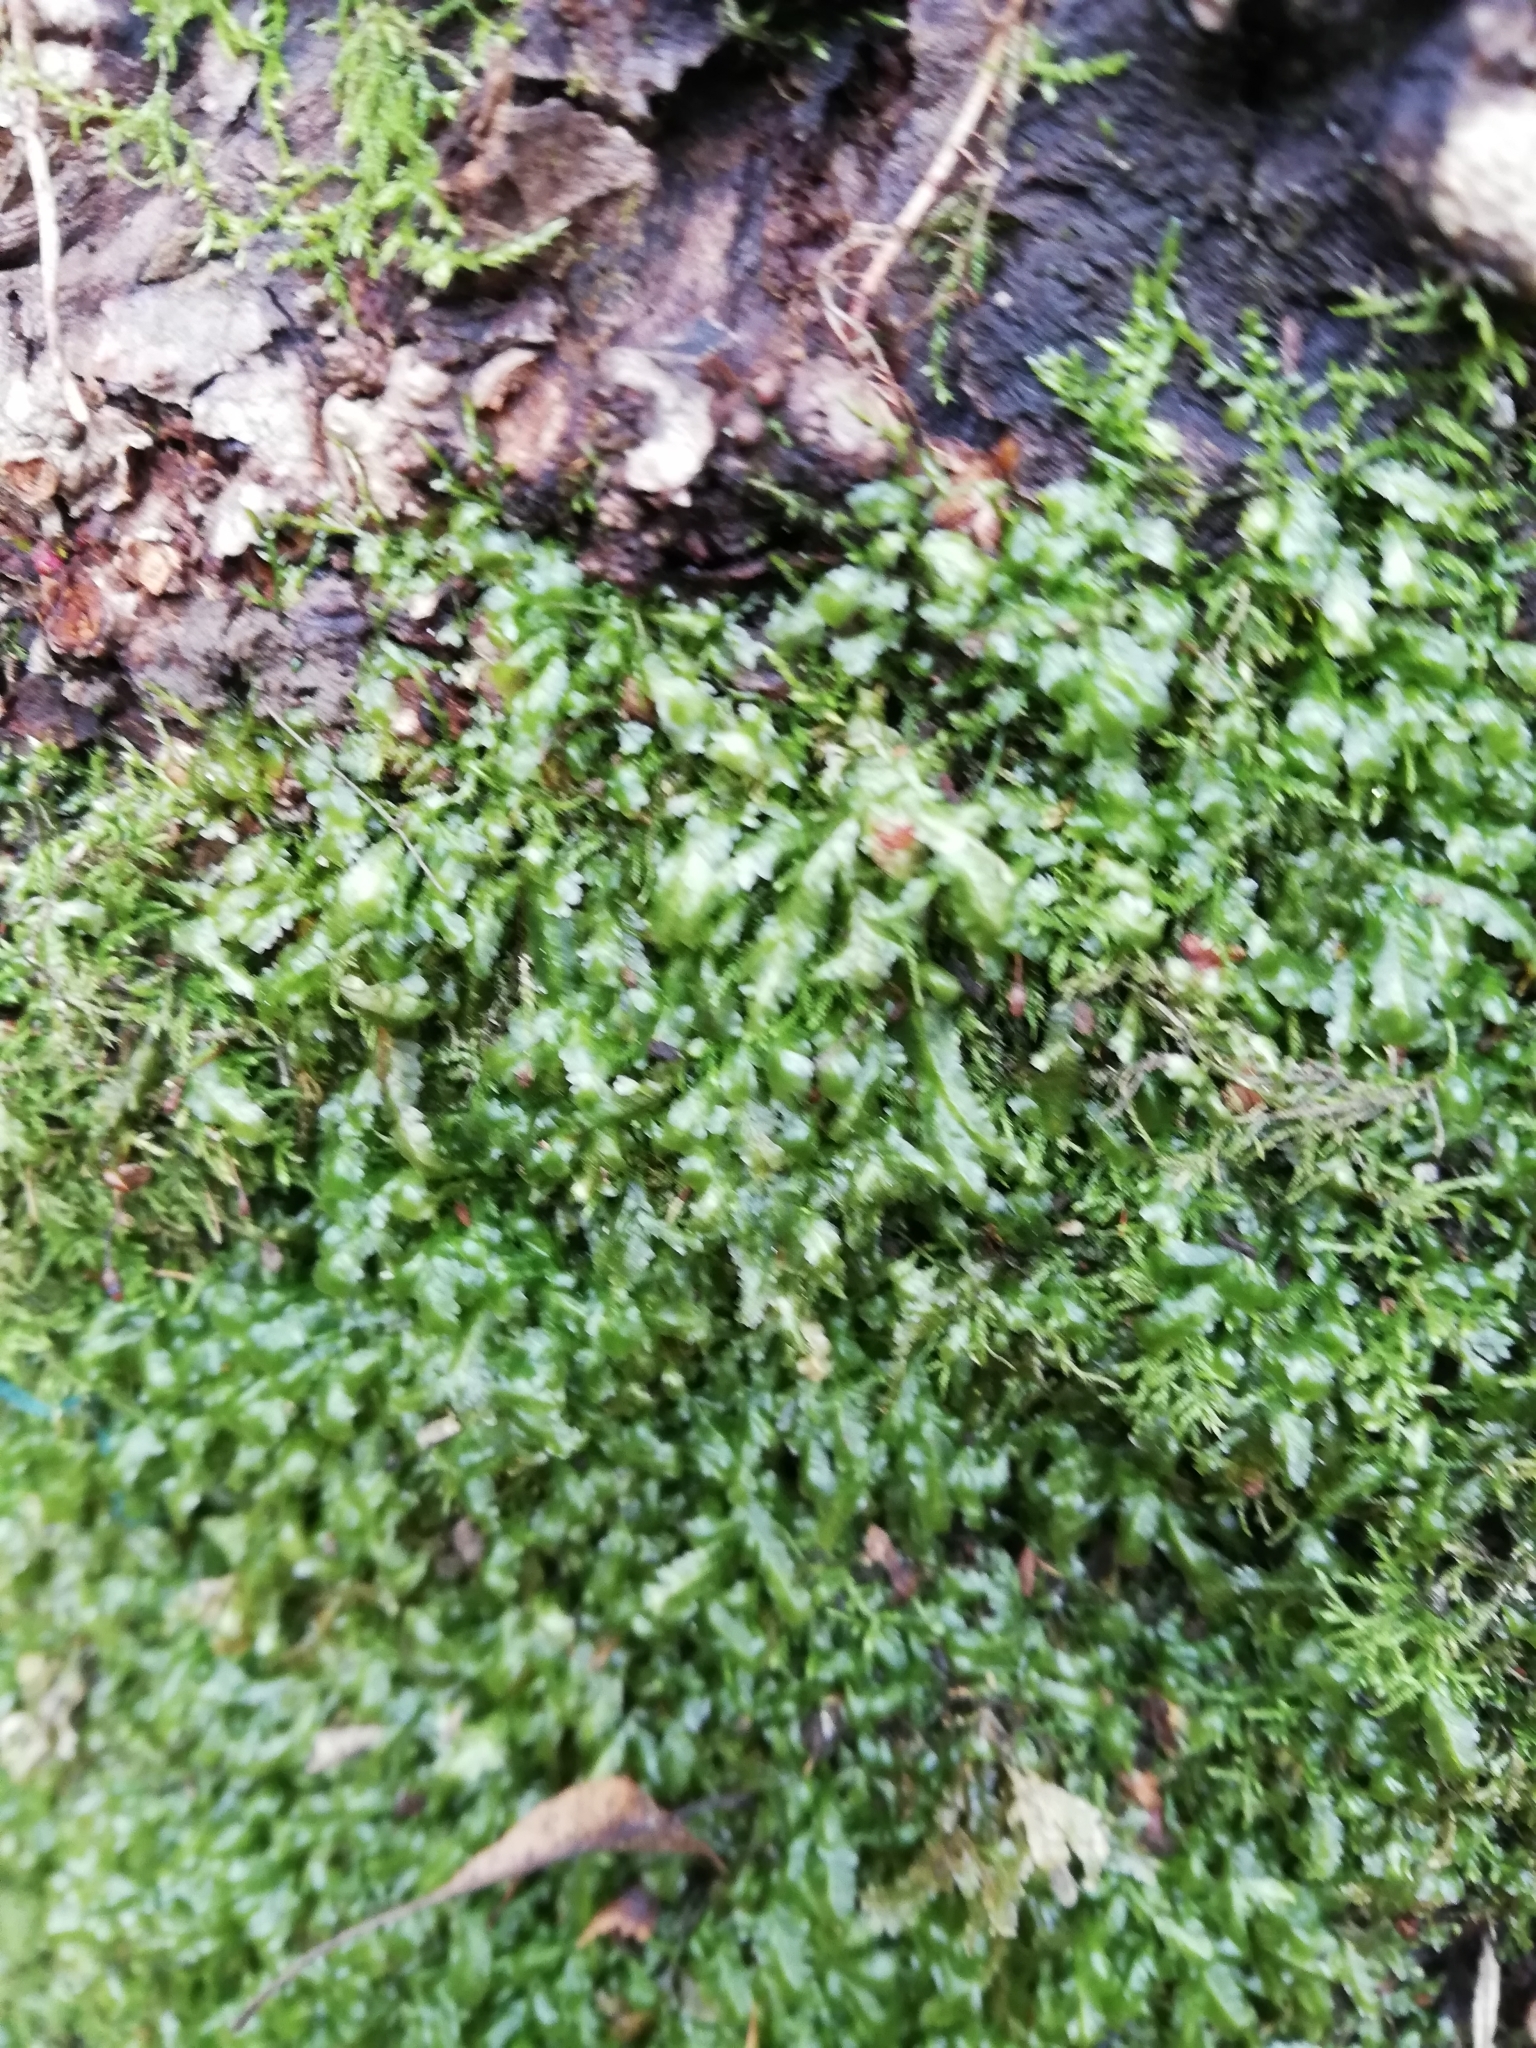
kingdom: Plantae
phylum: Bryophyta
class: Bryopsida
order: Hypnales
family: Neckeraceae
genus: Homalia
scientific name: Homalia trichomanoides
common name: Lime homalia moss
